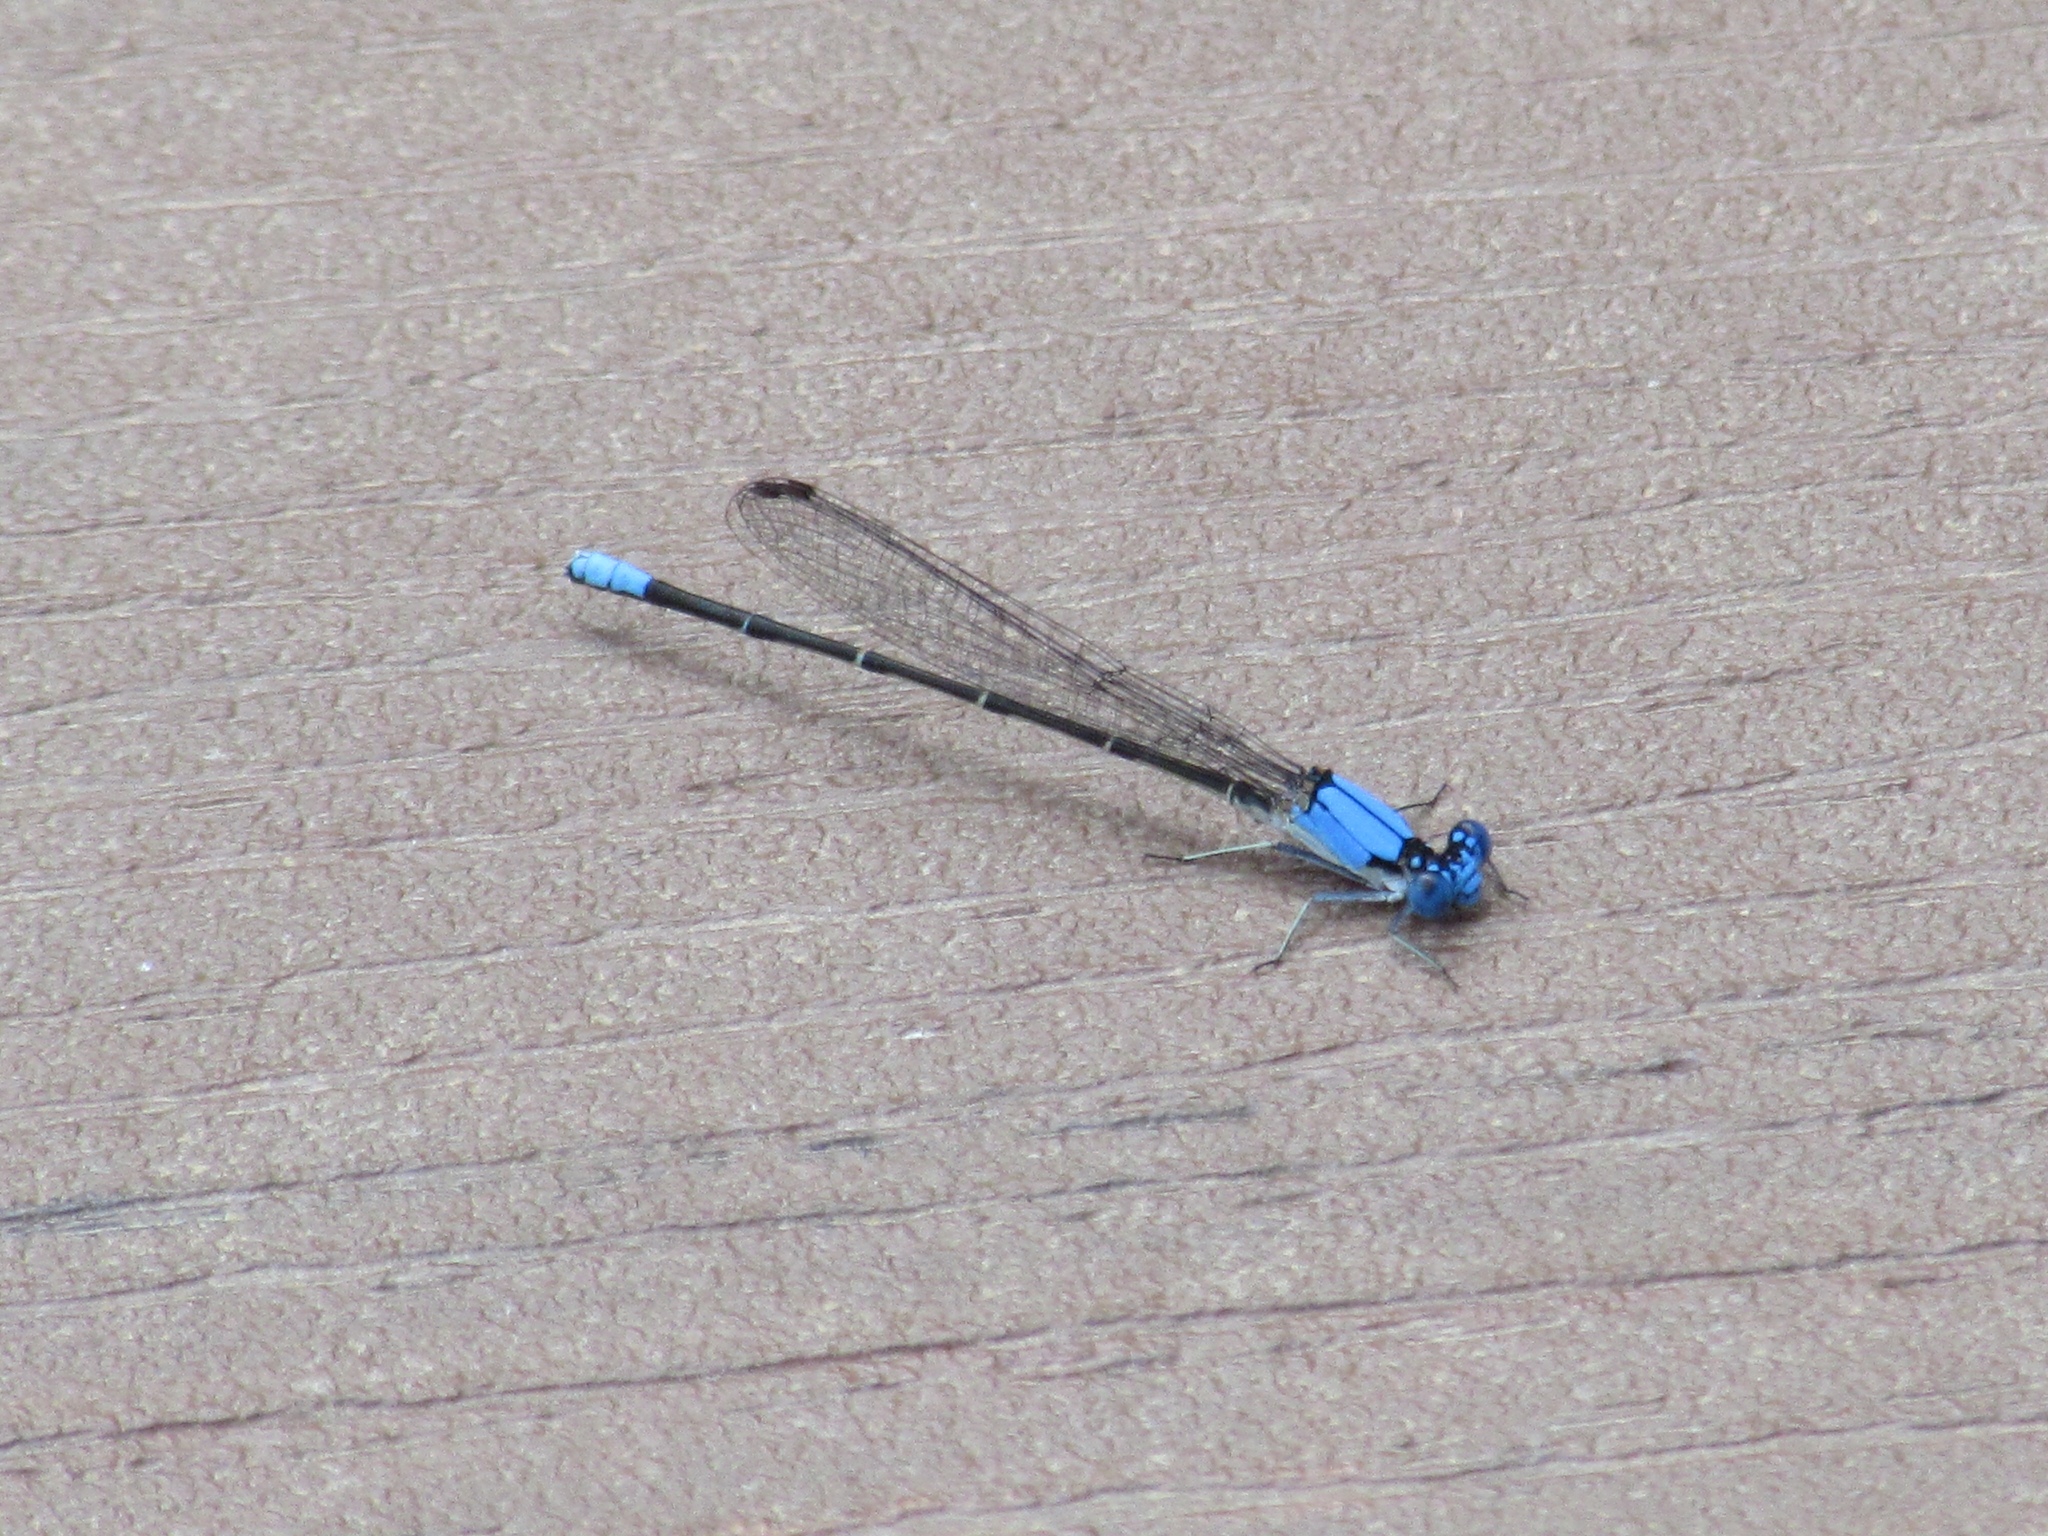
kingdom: Animalia
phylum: Arthropoda
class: Insecta
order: Odonata
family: Coenagrionidae
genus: Argia
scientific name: Argia apicalis
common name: Blue-fronted dancer
